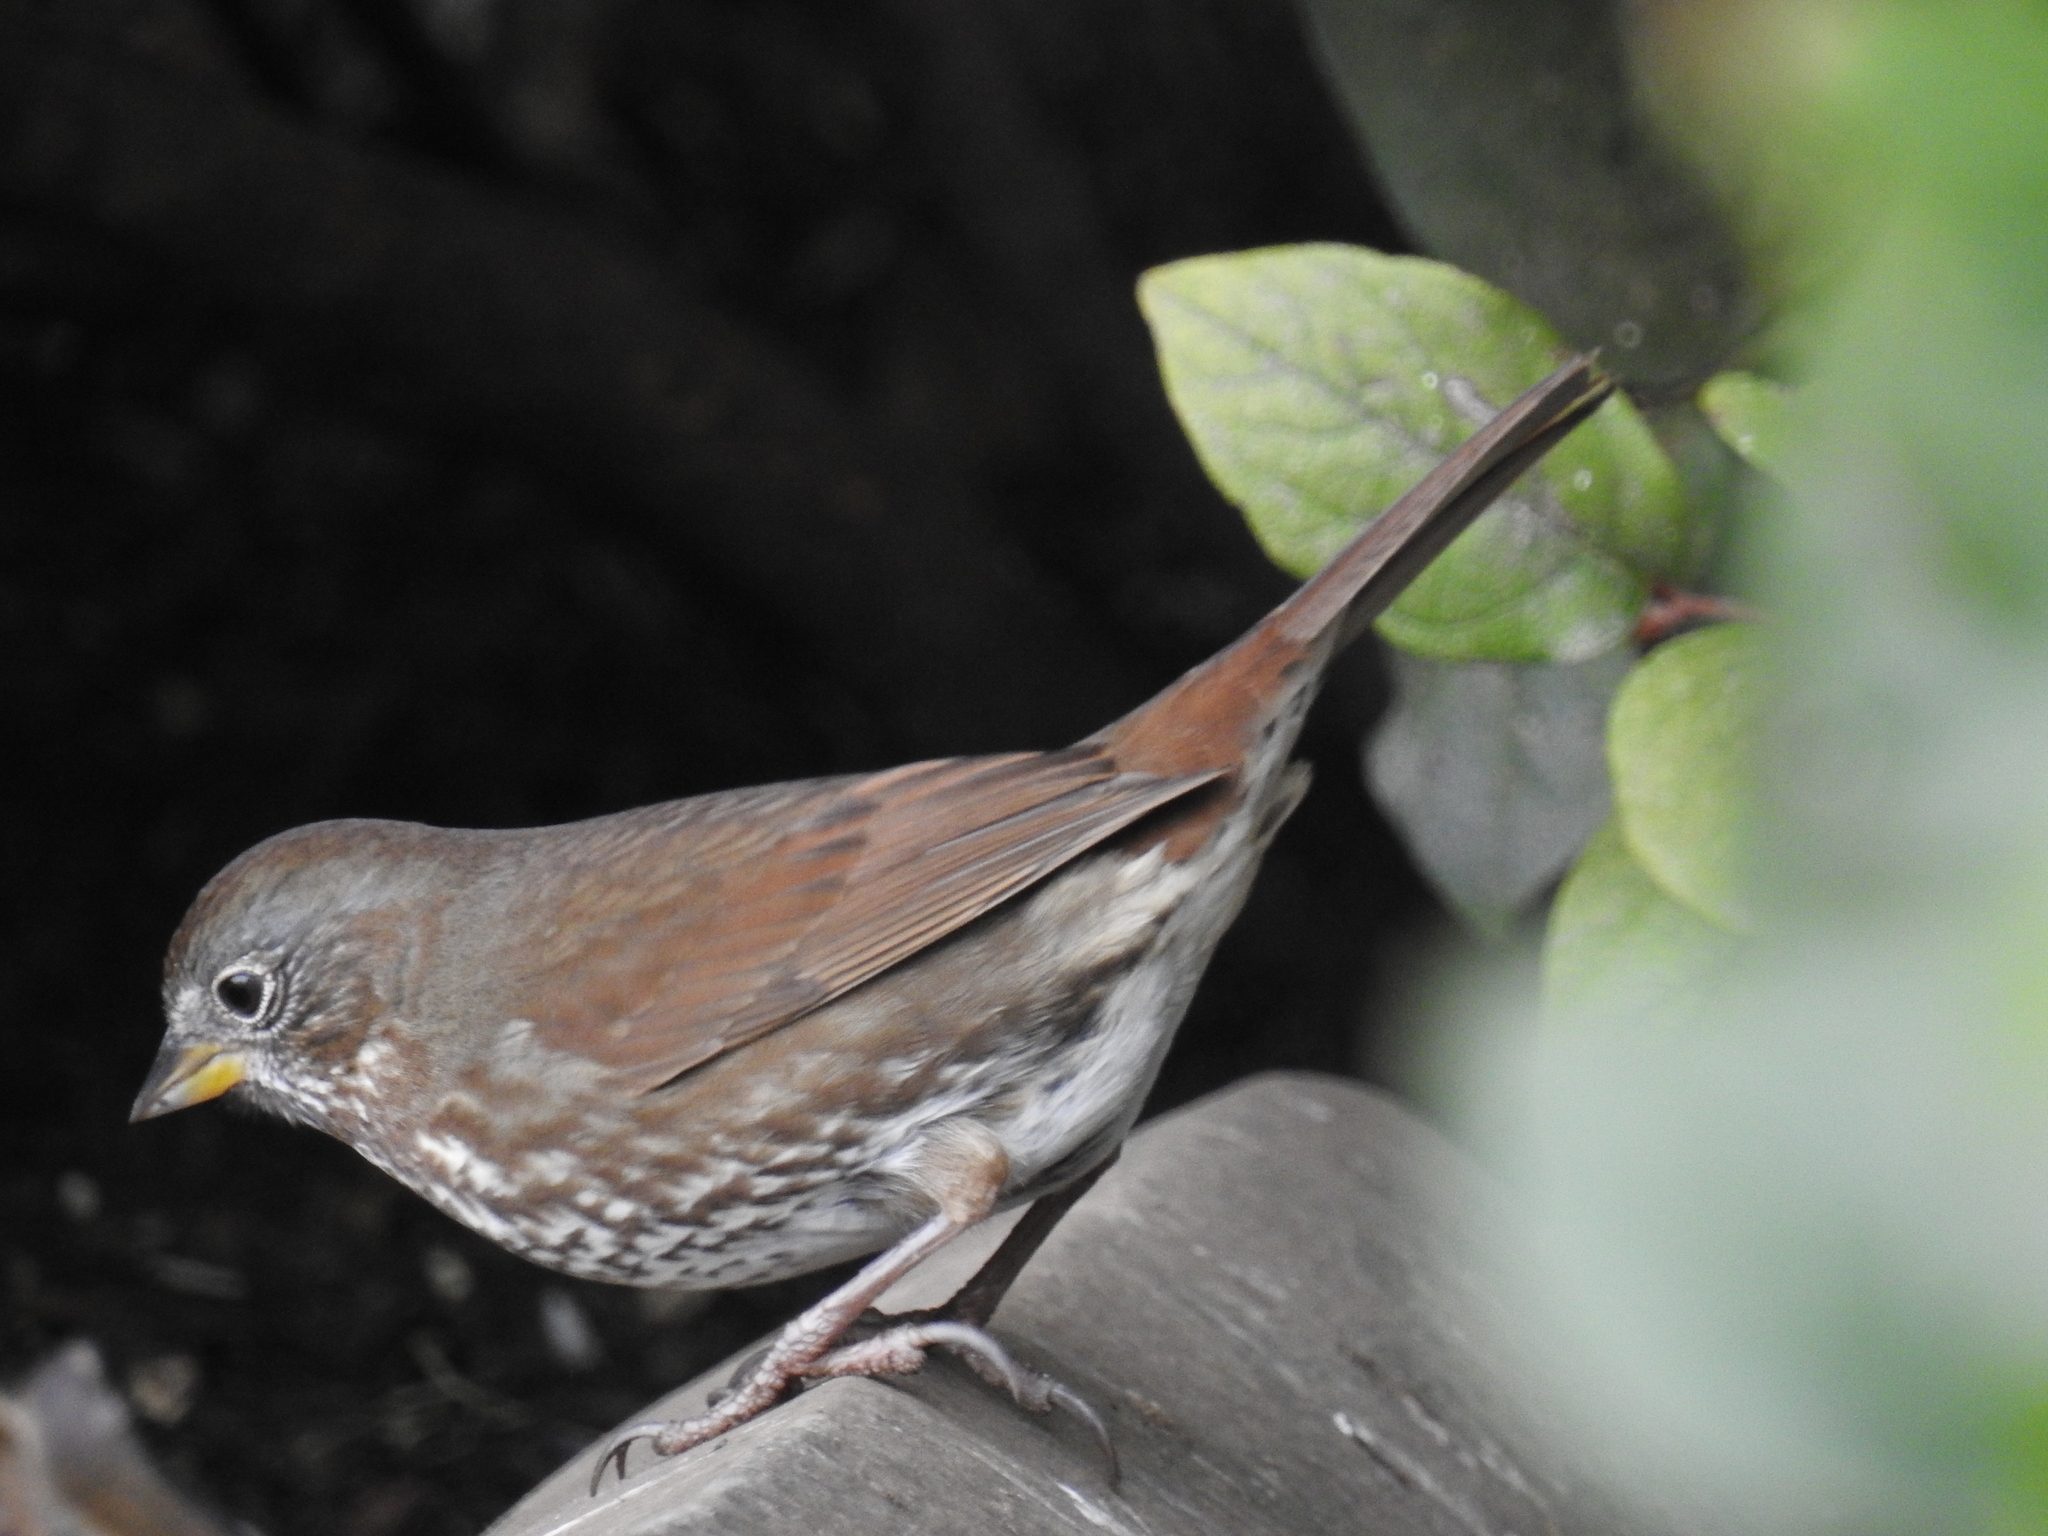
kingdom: Animalia
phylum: Chordata
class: Aves
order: Passeriformes
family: Passerellidae
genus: Passerella
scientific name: Passerella iliaca
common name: Fox sparrow
